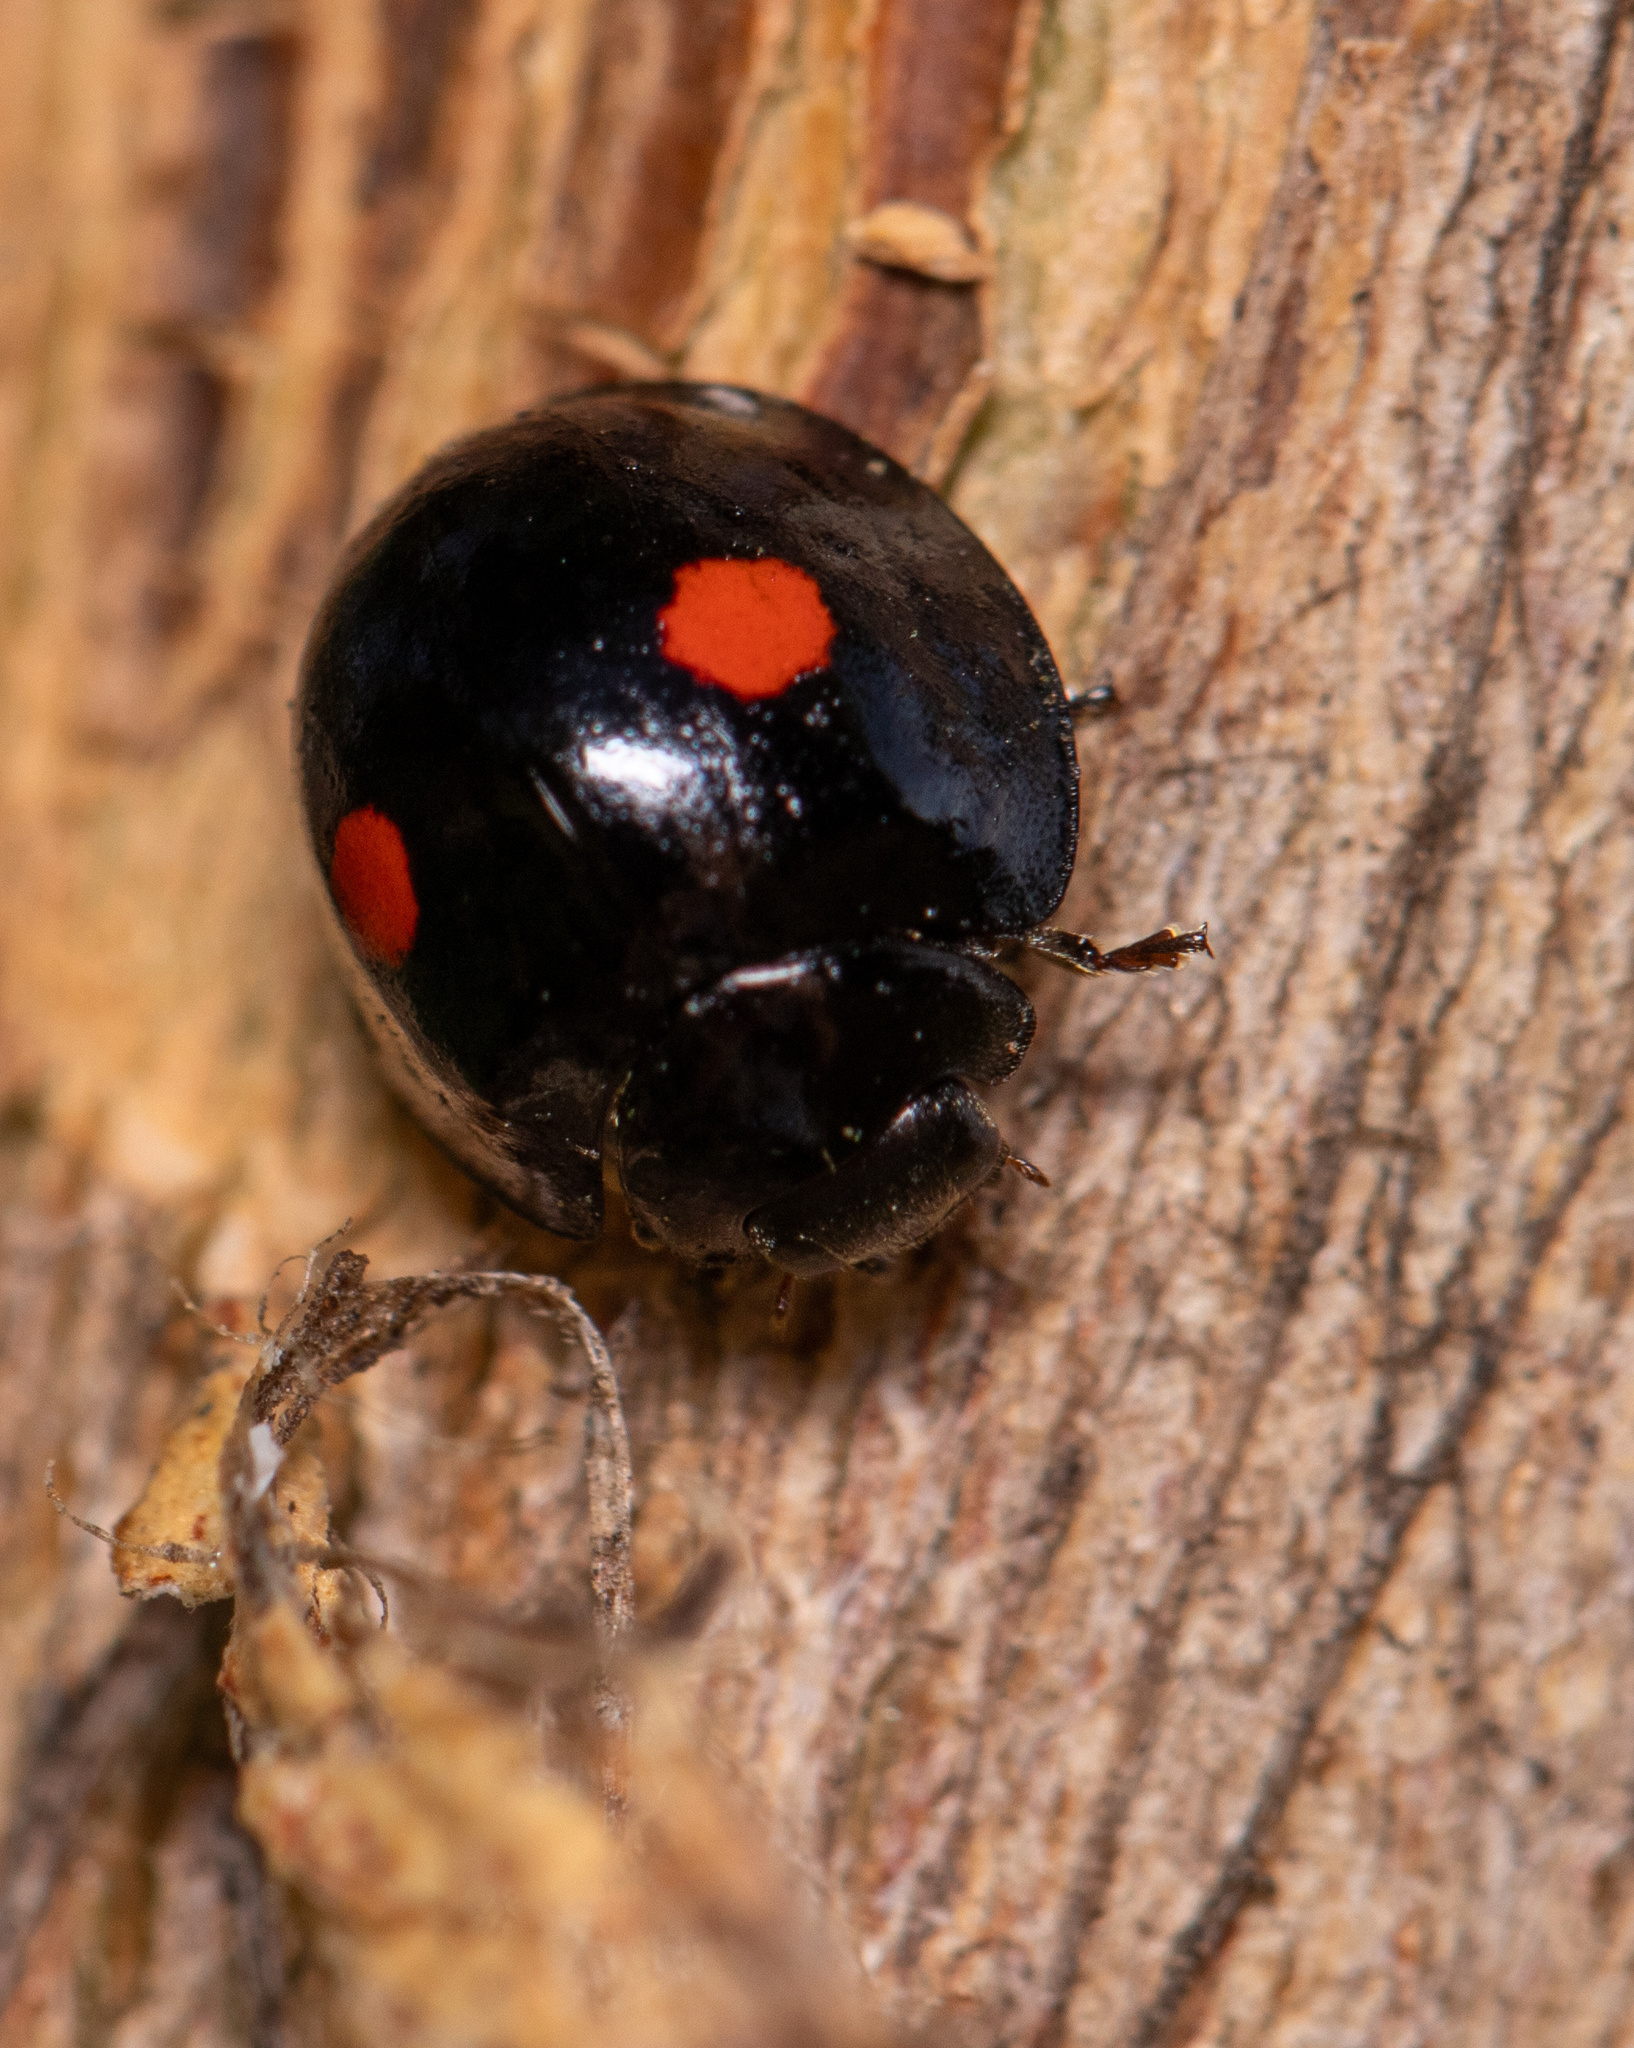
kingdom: Animalia
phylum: Arthropoda
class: Insecta
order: Coleoptera
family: Coccinellidae
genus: Chilocorus
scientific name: Chilocorus stigma
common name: Twicestabbed lady beetle
